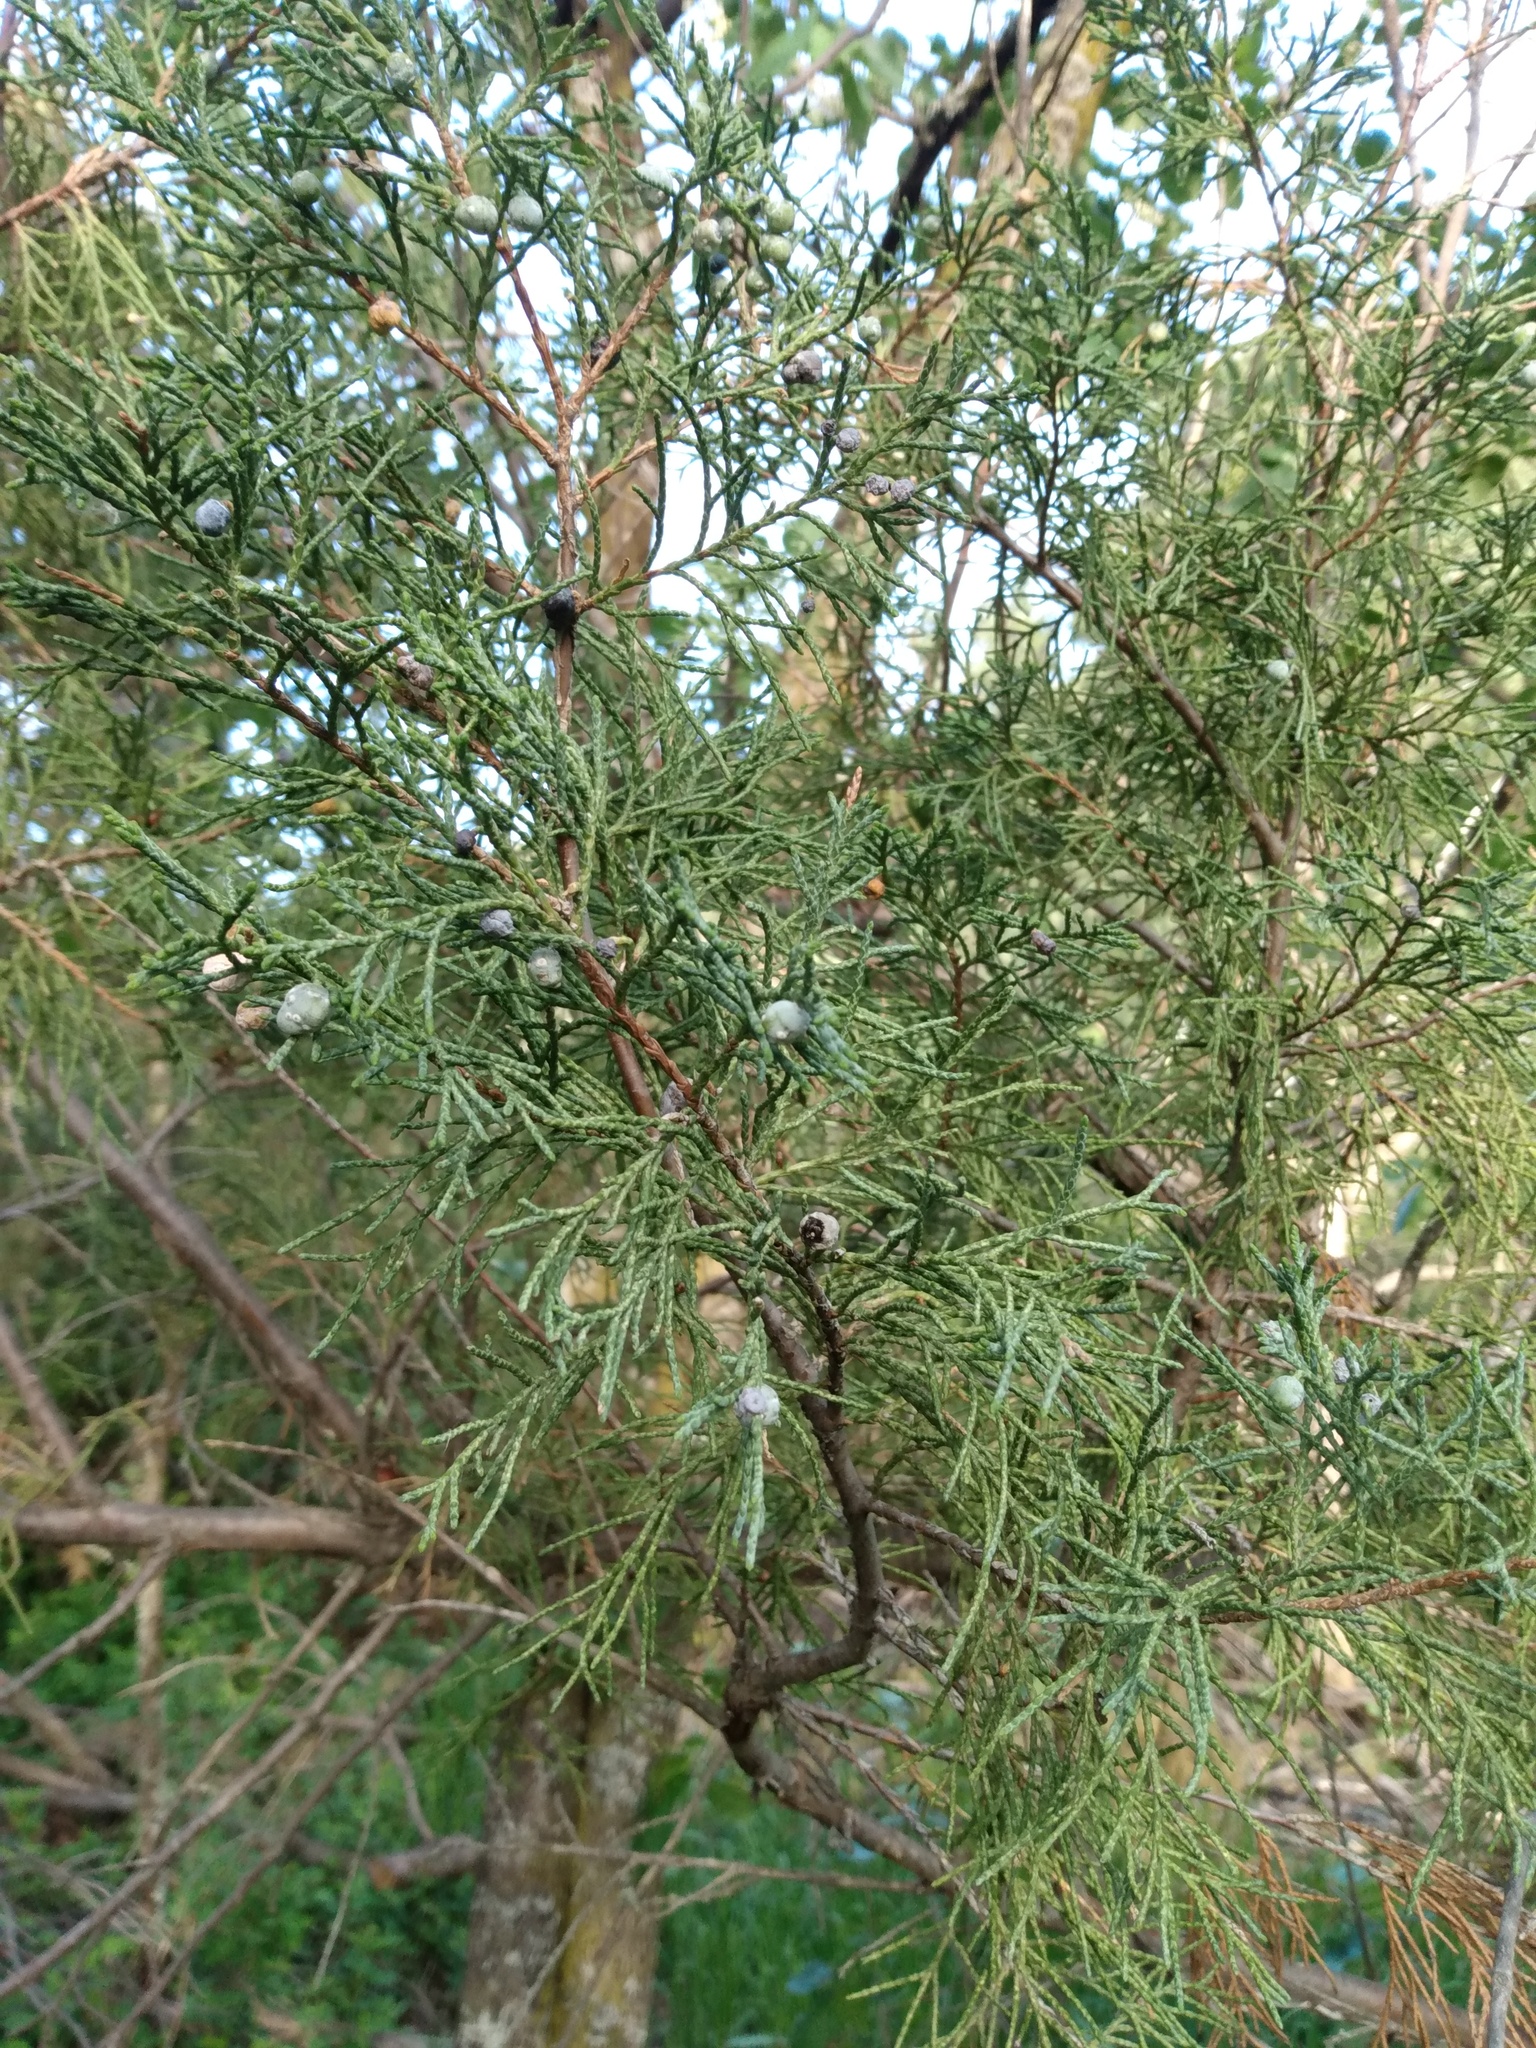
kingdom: Plantae
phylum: Tracheophyta
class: Pinopsida
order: Pinales
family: Cupressaceae
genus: Juniperus
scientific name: Juniperus scopulorum
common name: Rocky mountain juniper
